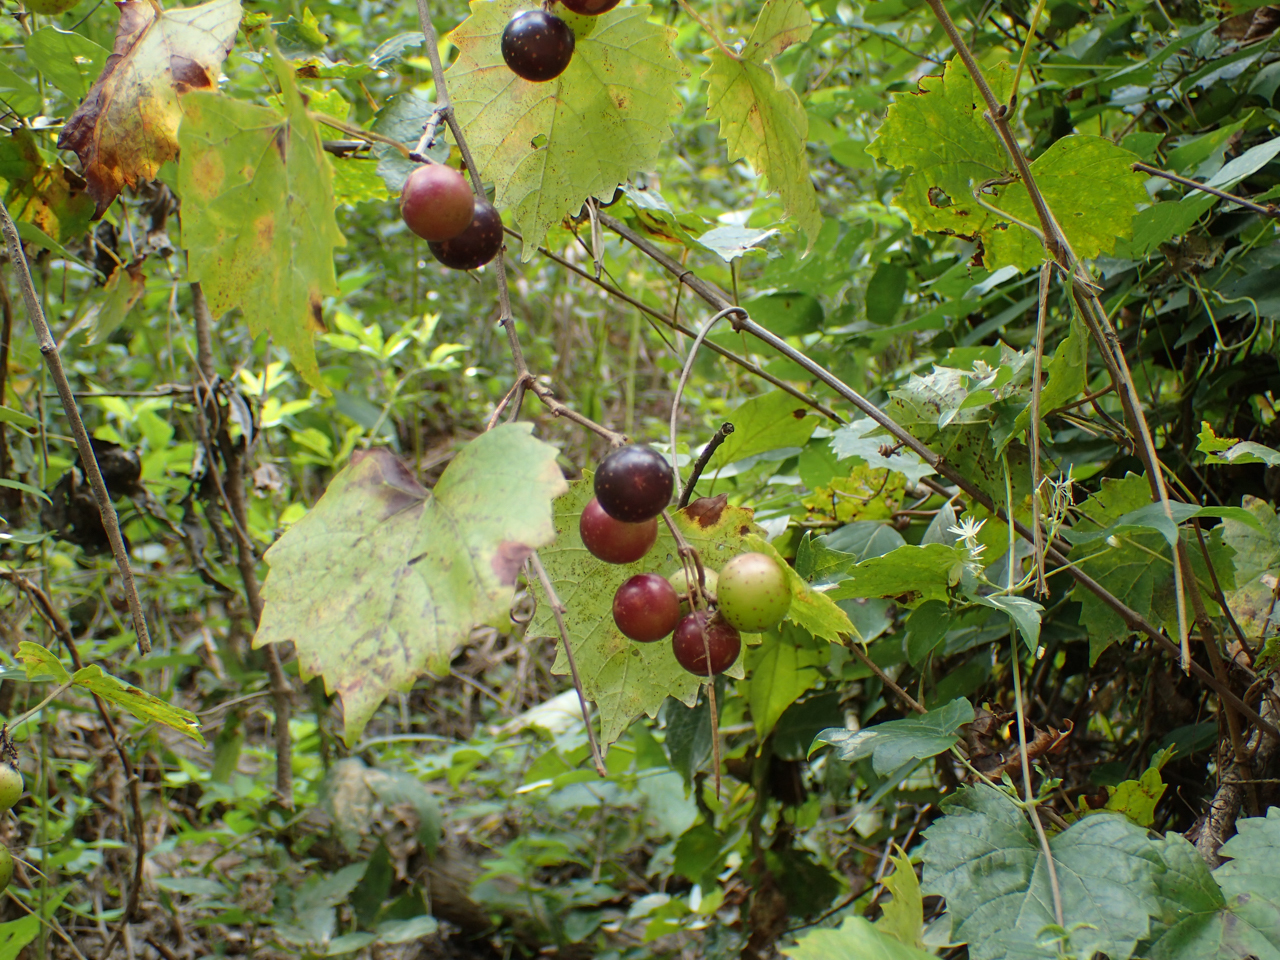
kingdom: Plantae
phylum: Tracheophyta
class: Magnoliopsida
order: Vitales
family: Vitaceae
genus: Vitis
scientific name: Vitis rotundifolia
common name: Muscadine grape
